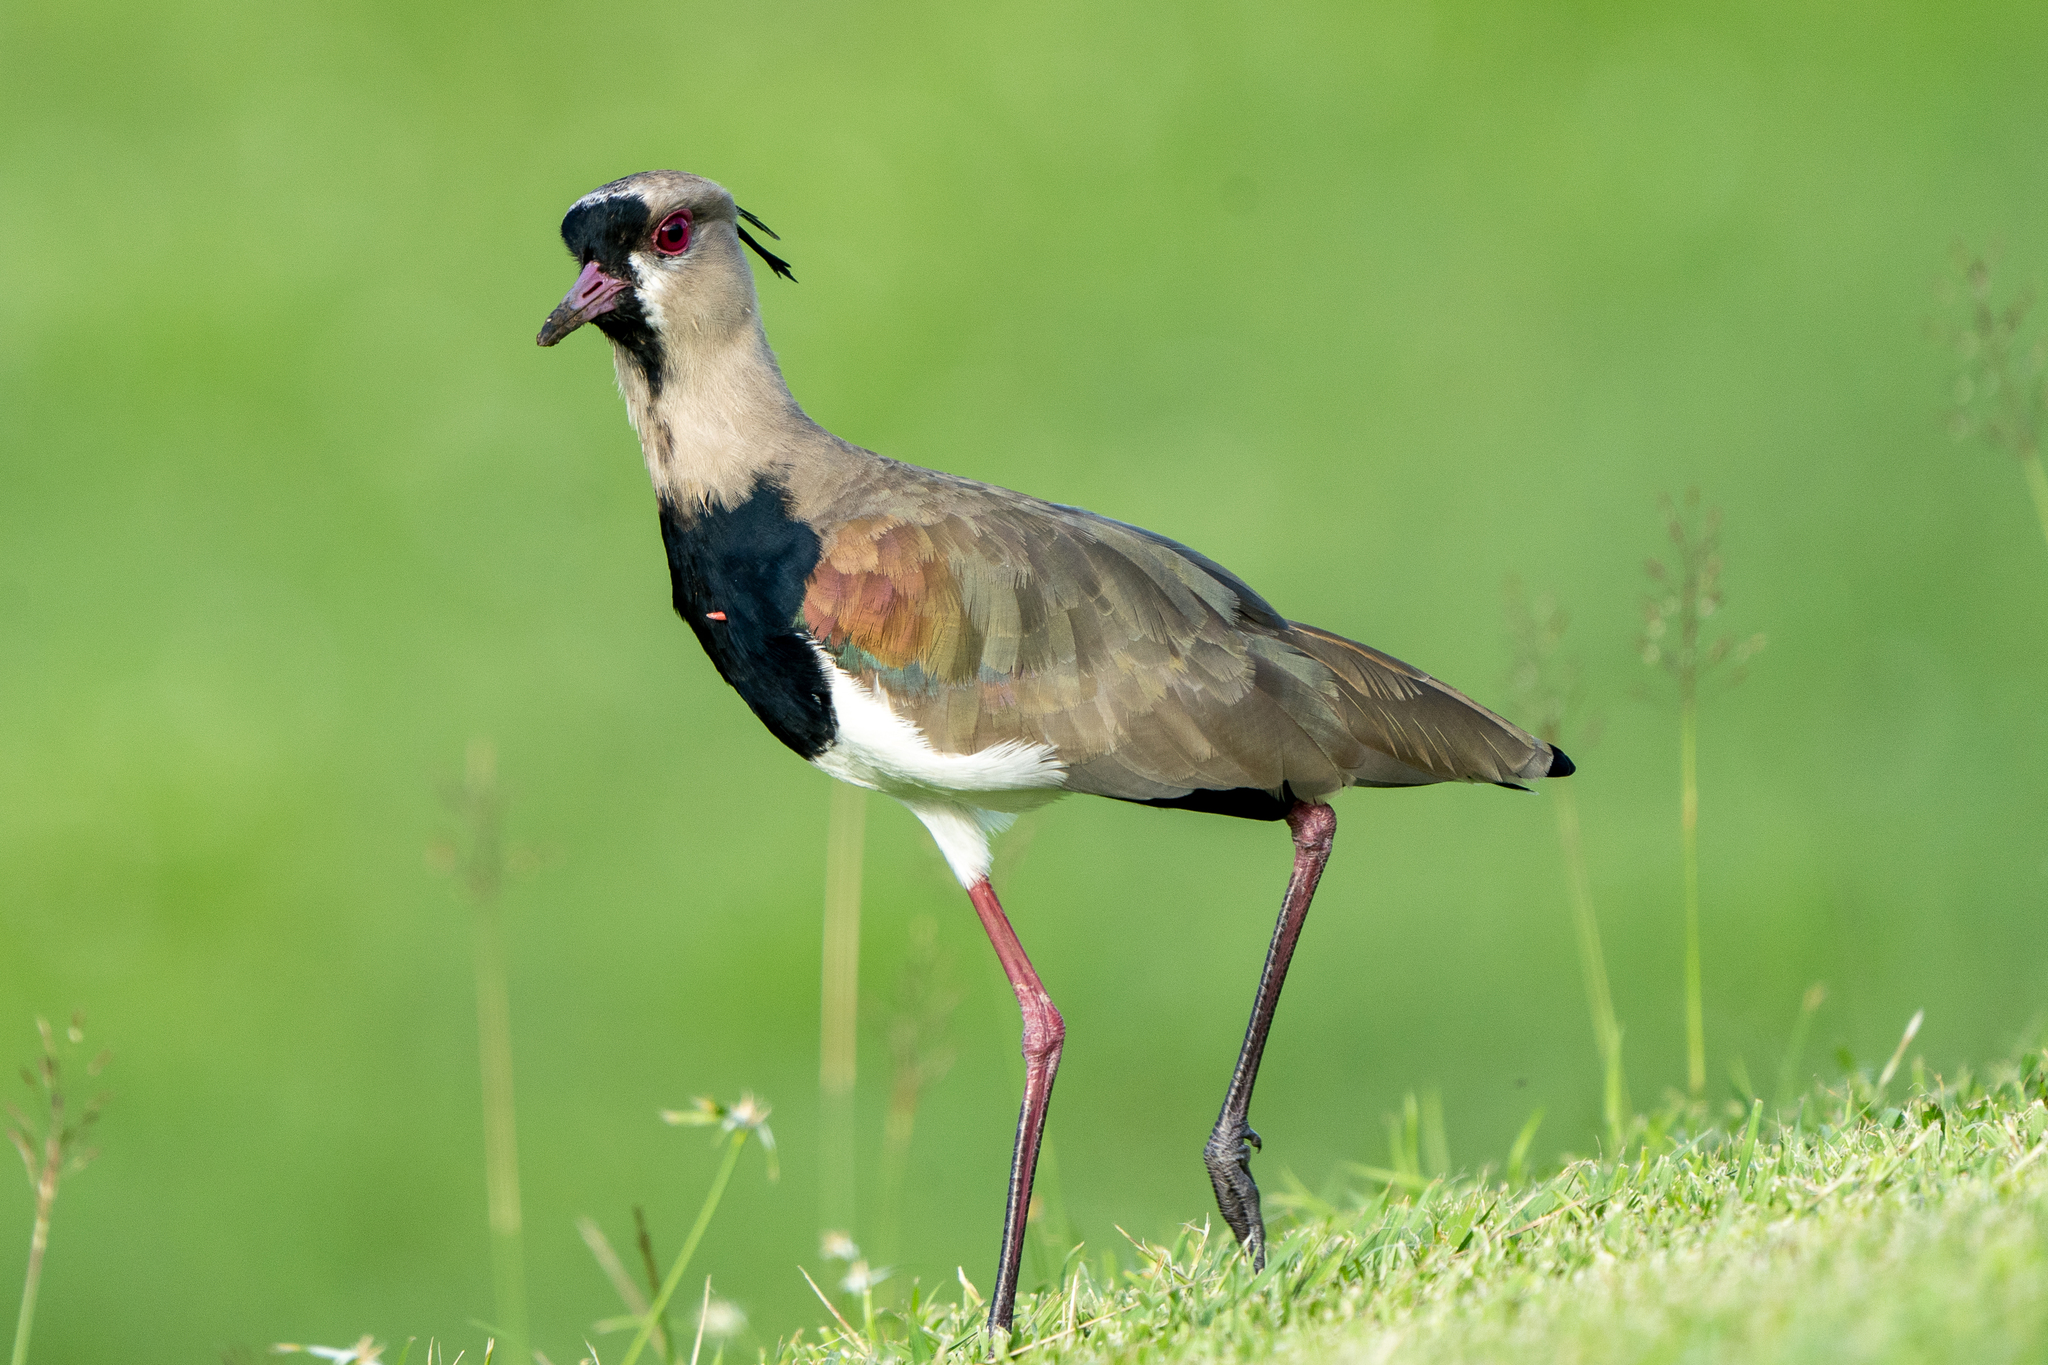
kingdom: Animalia
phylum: Chordata
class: Aves
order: Charadriiformes
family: Charadriidae
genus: Vanellus
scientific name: Vanellus chilensis
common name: Southern lapwing
